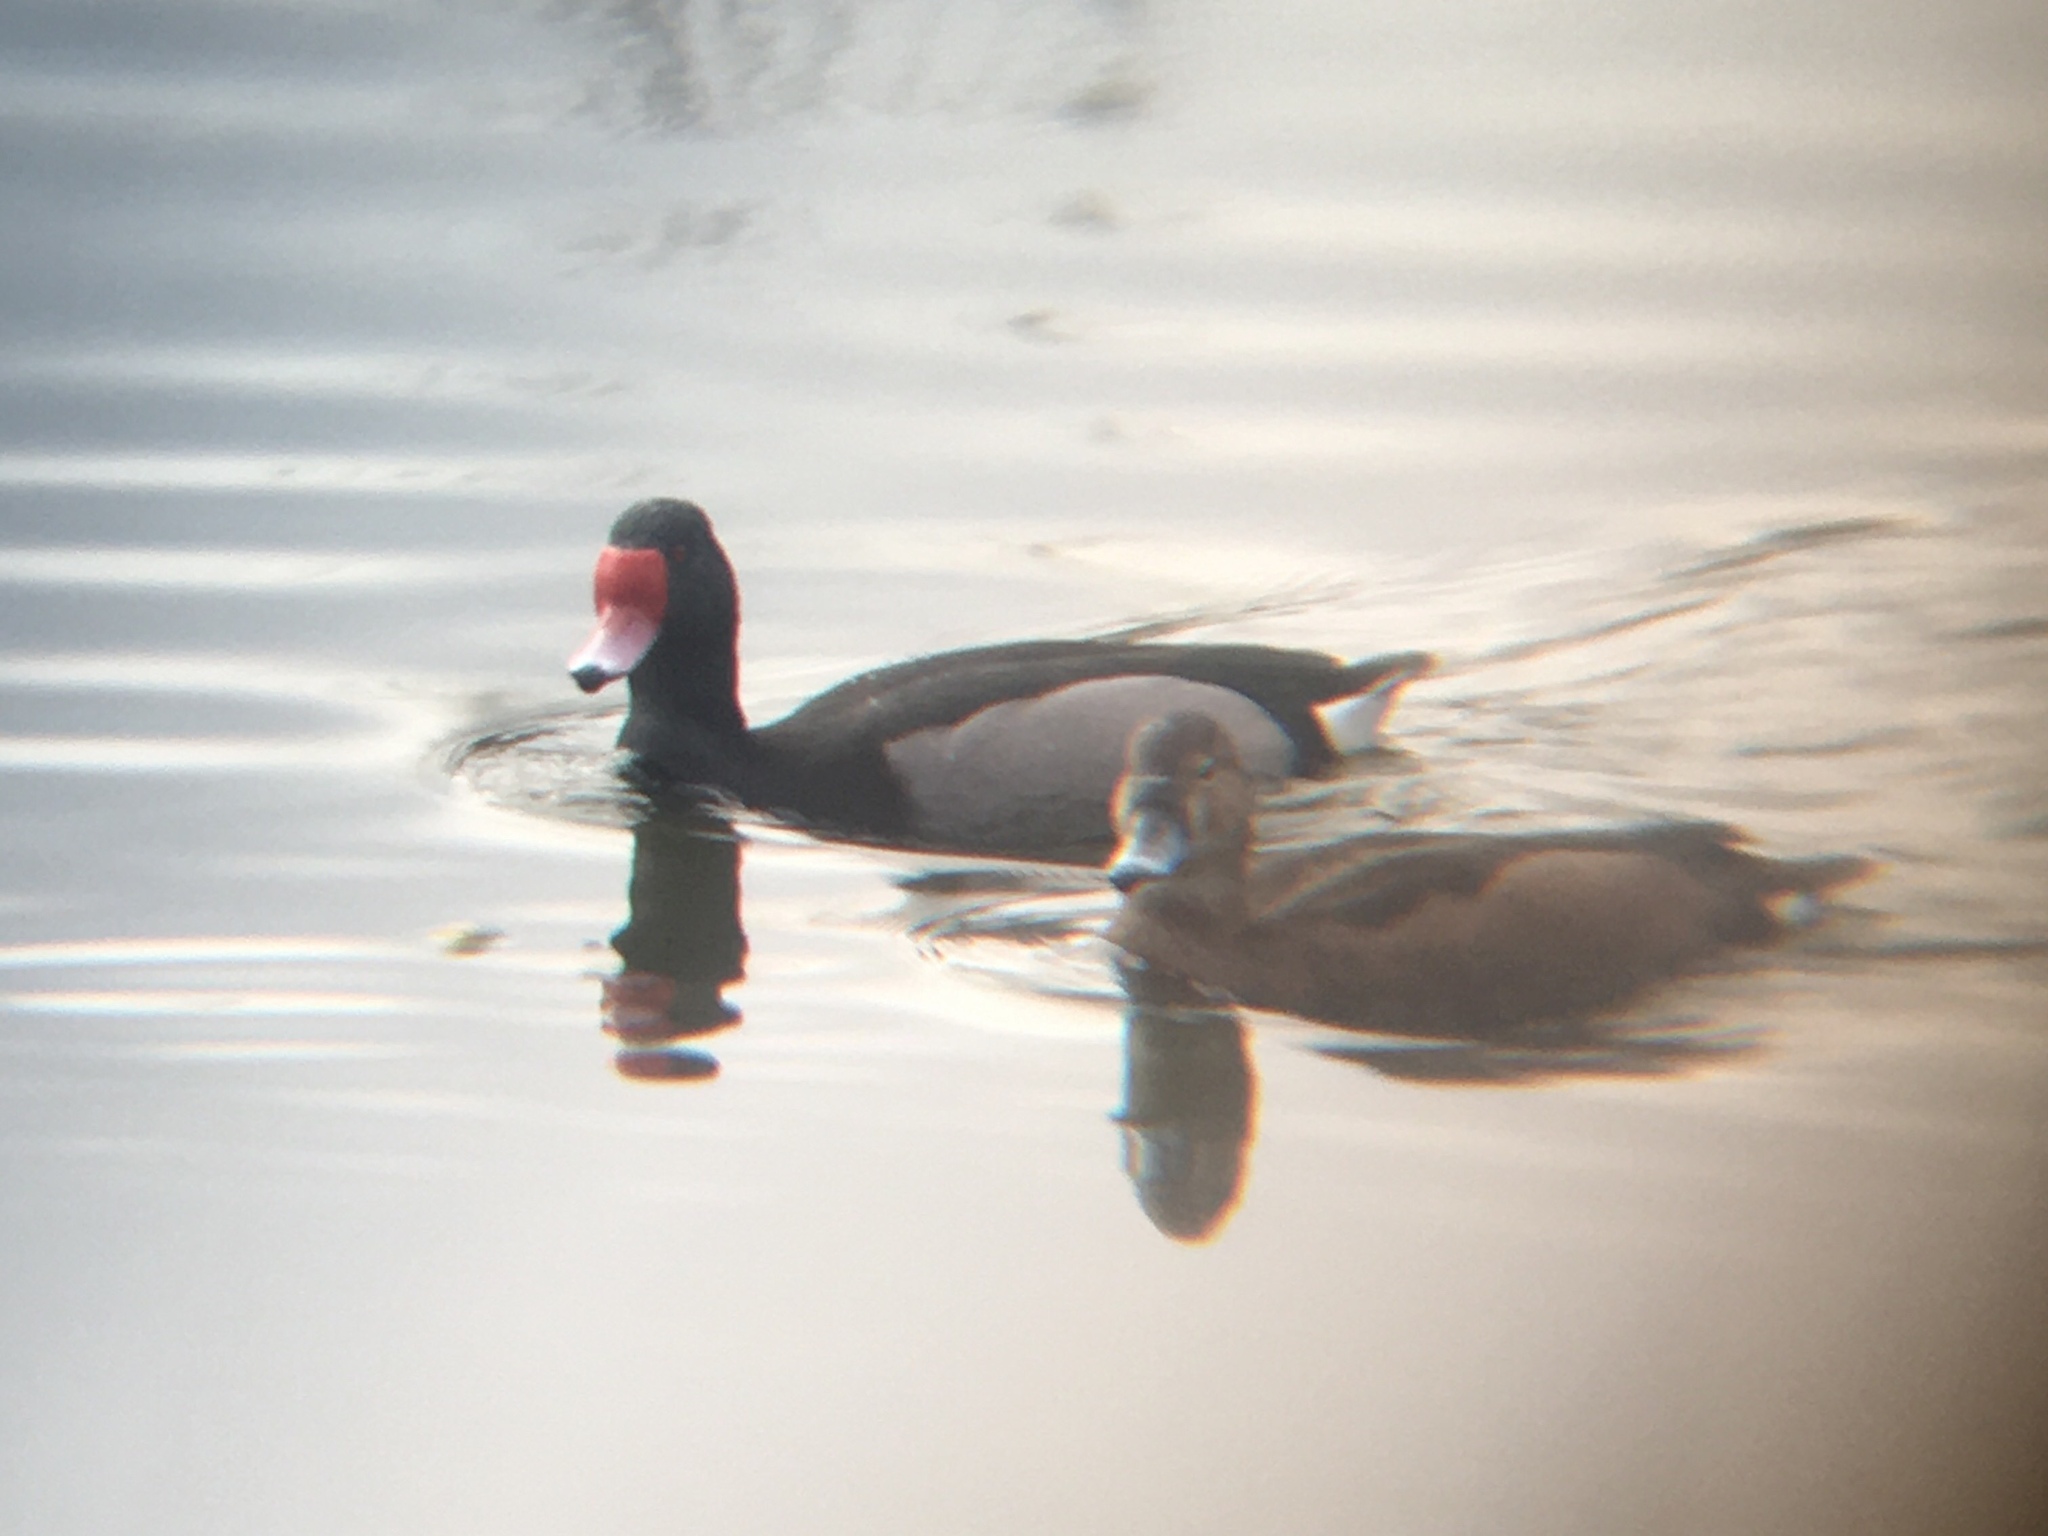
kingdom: Animalia
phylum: Chordata
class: Aves
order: Anseriformes
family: Anatidae
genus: Netta
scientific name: Netta peposaca
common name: Rosy-billed pochard
